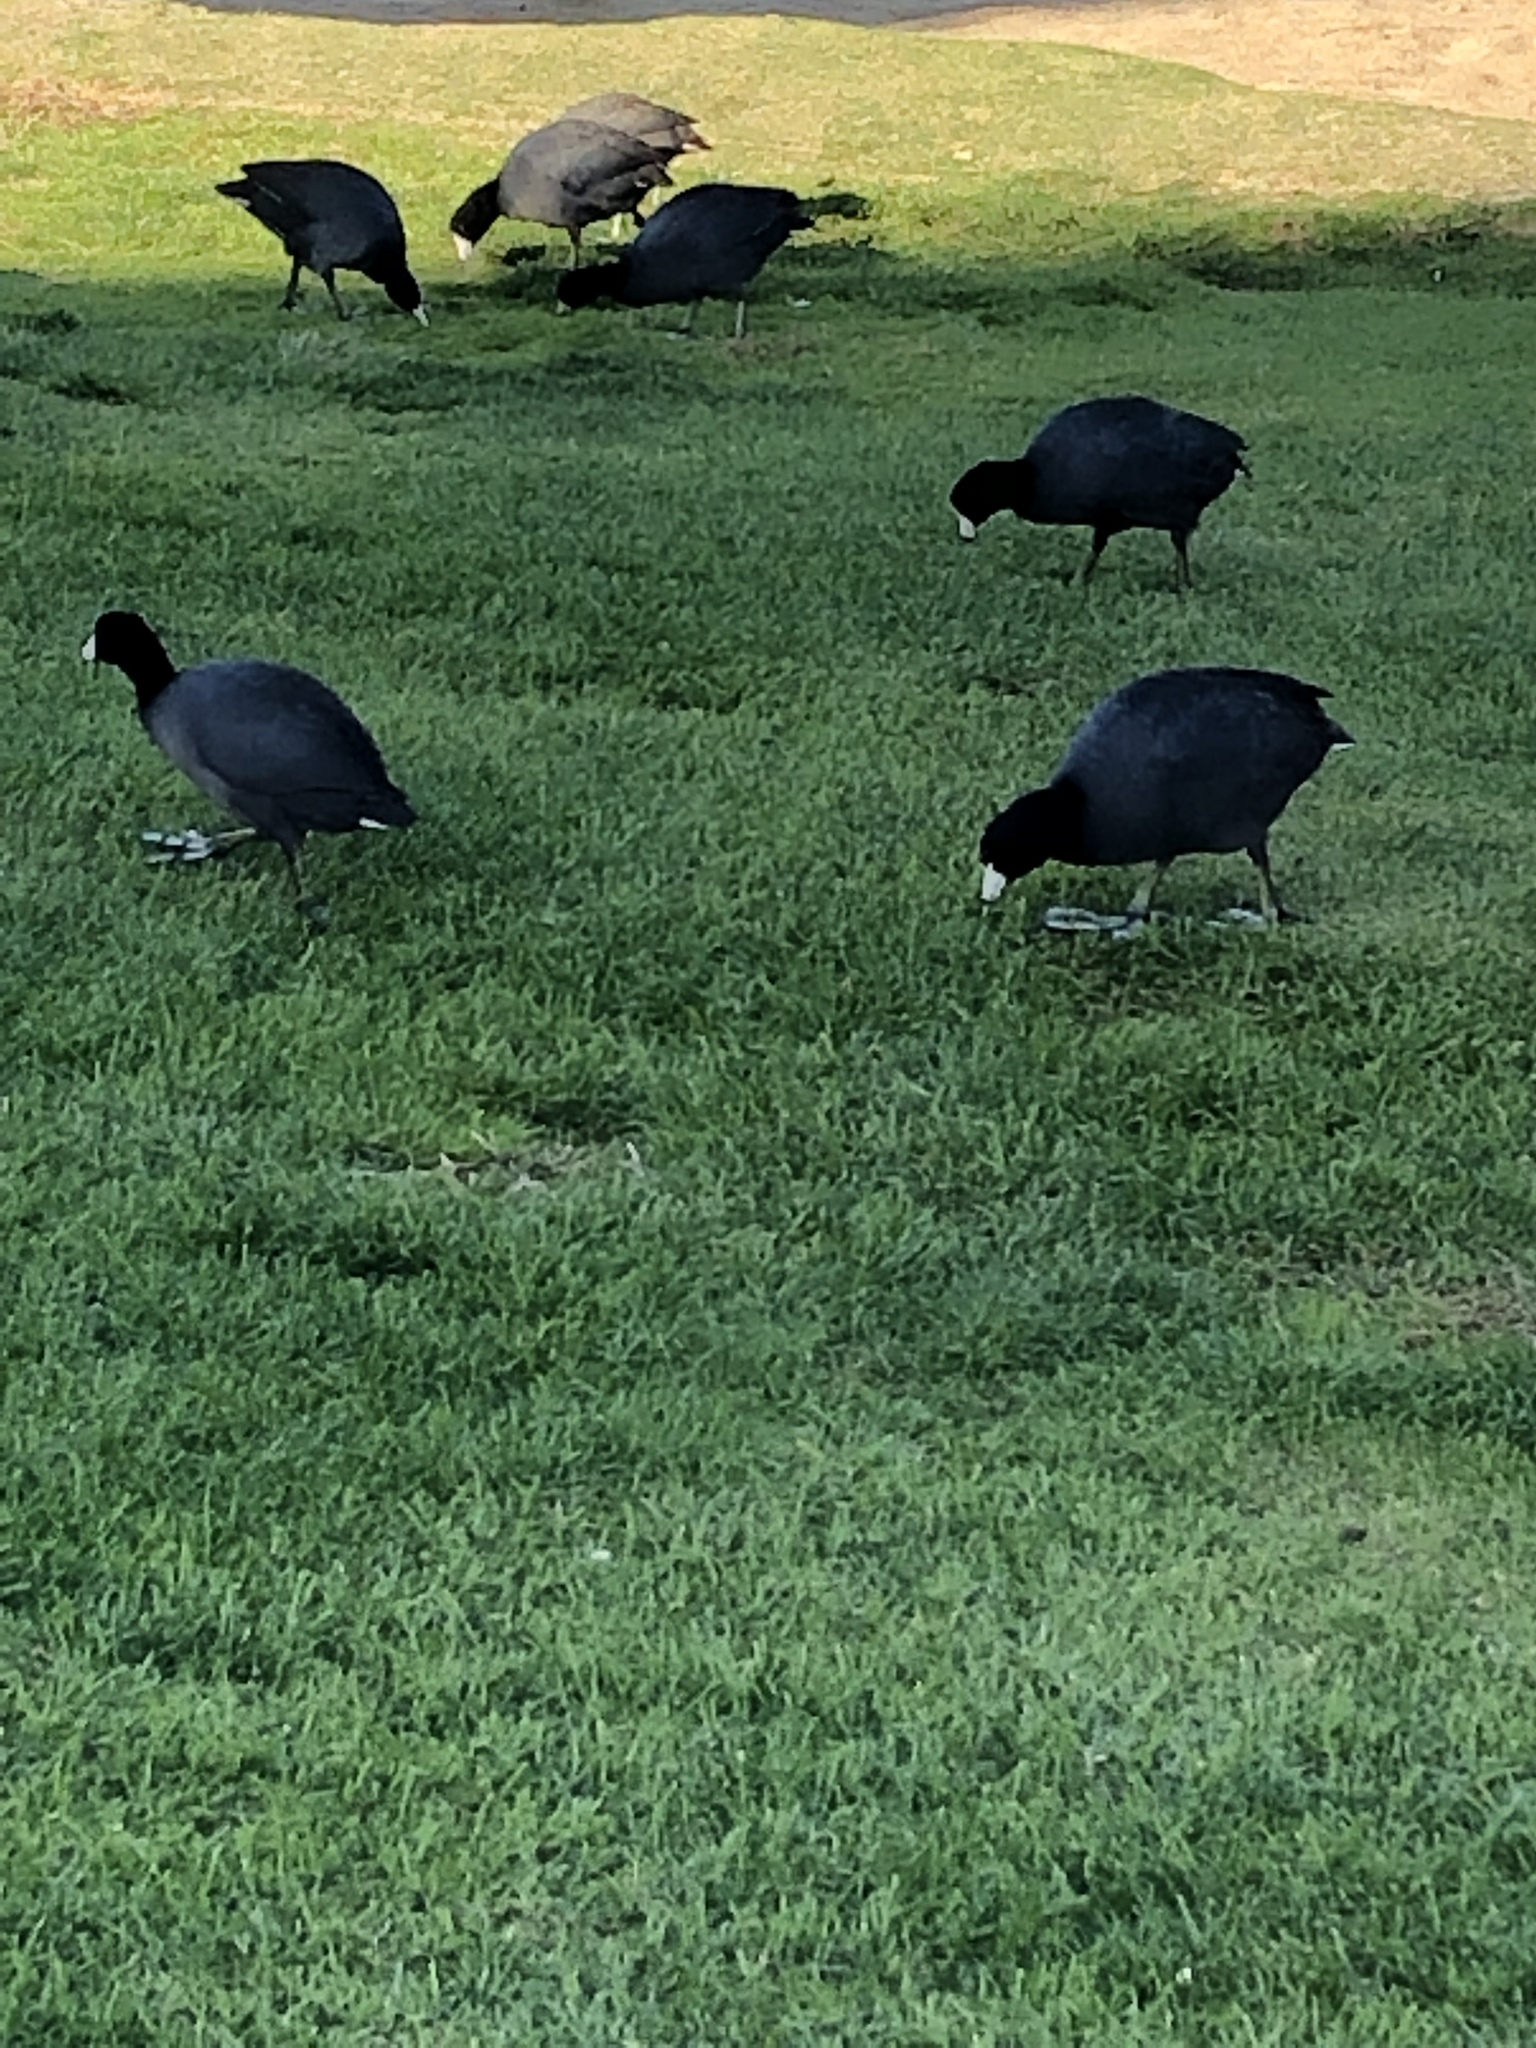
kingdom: Animalia
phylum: Chordata
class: Aves
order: Gruiformes
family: Rallidae
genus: Fulica
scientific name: Fulica americana
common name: American coot
